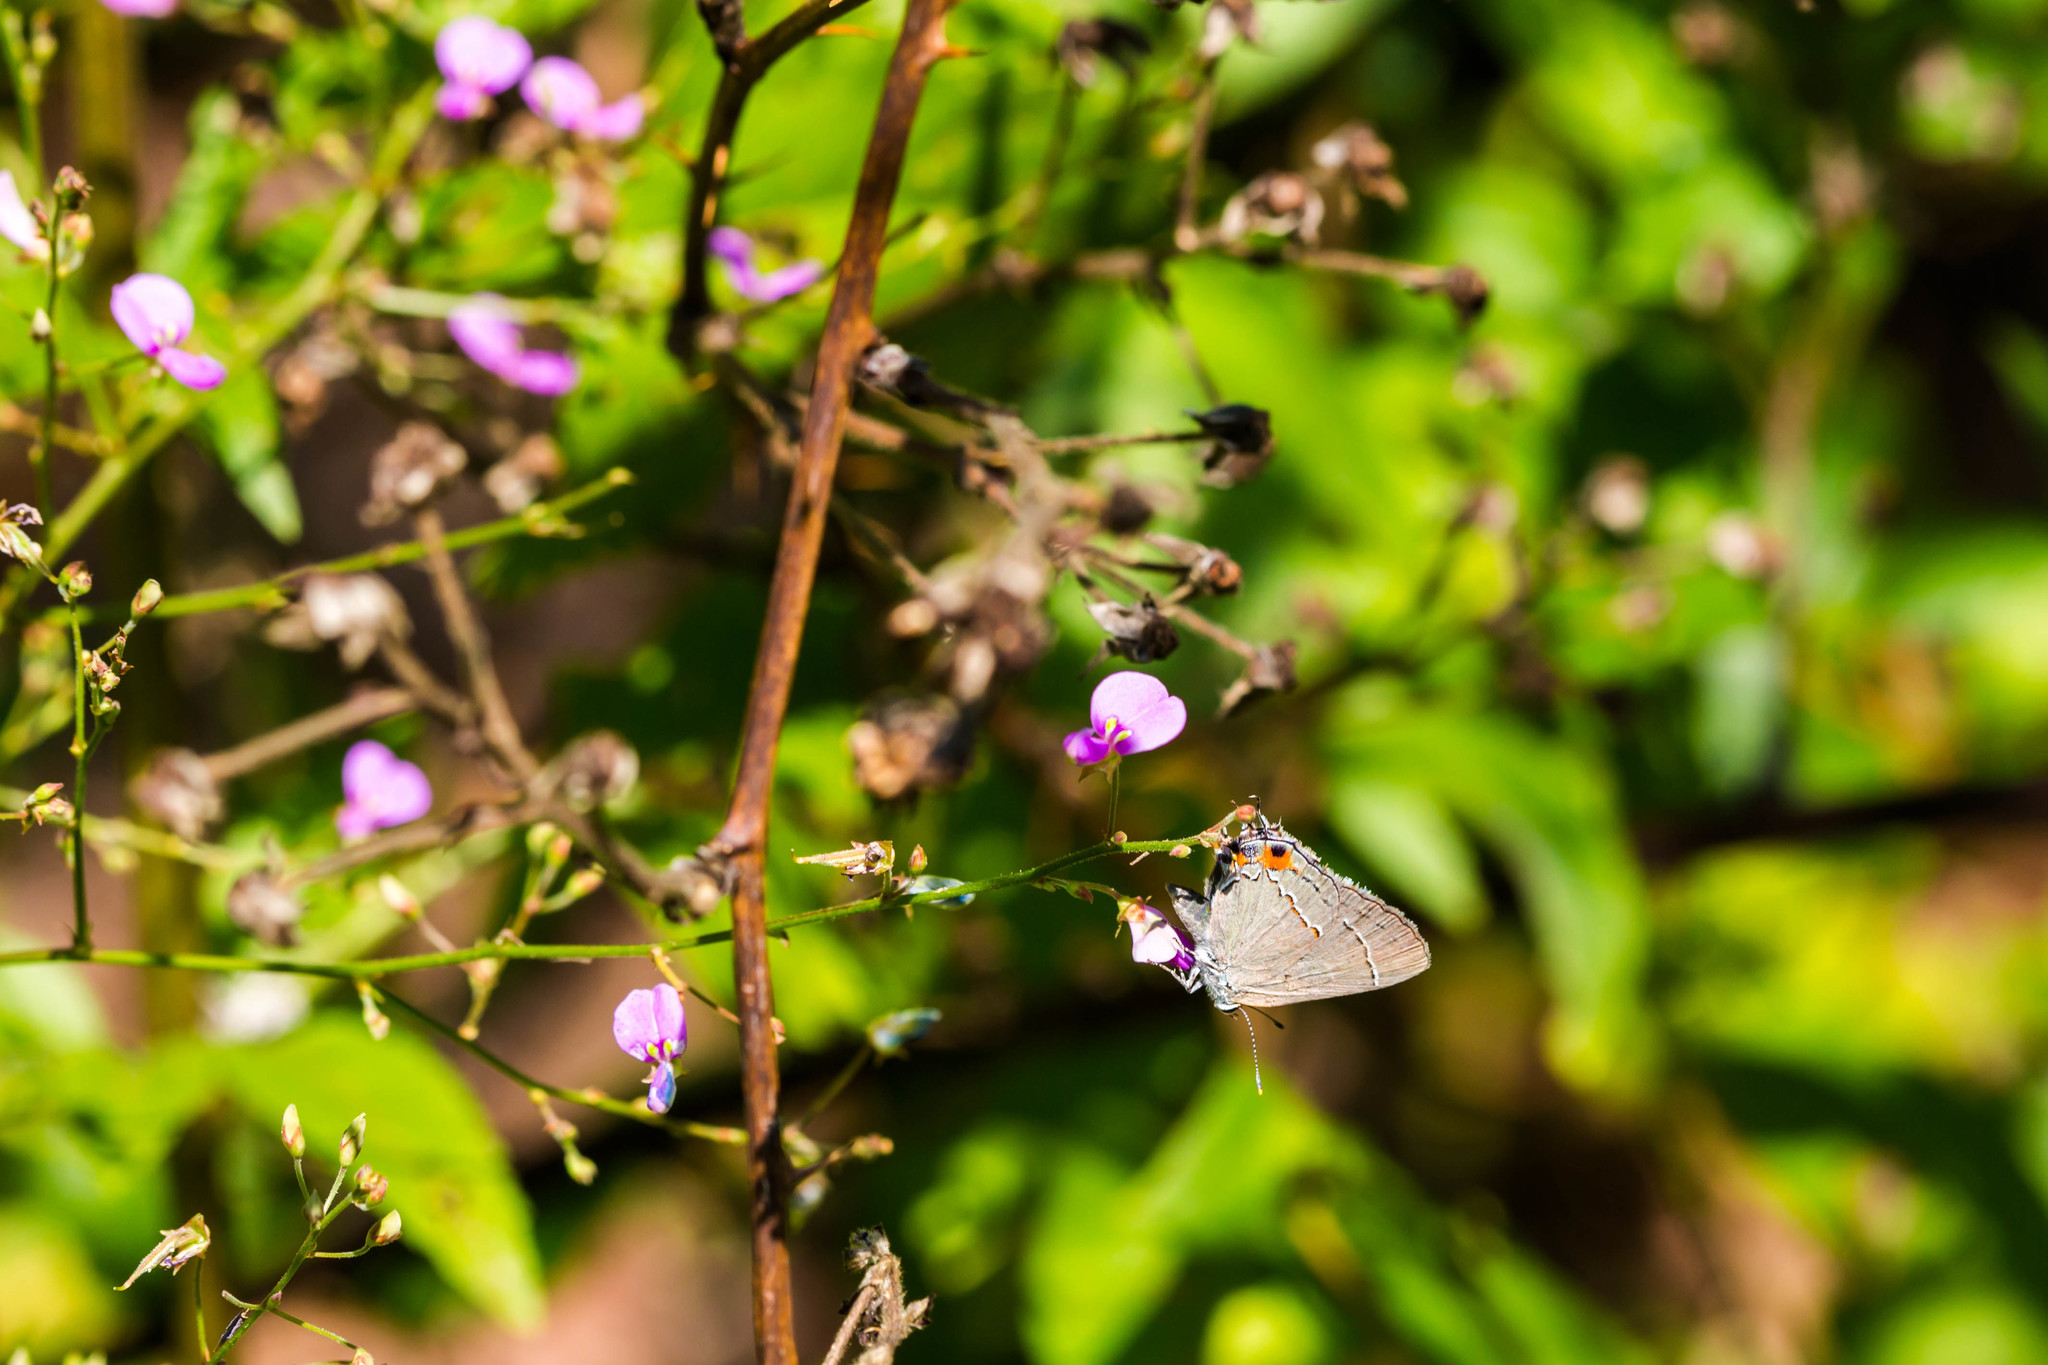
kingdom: Animalia
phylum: Arthropoda
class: Insecta
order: Lepidoptera
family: Lycaenidae
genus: Strymon
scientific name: Strymon melinus
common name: Gray hairstreak
